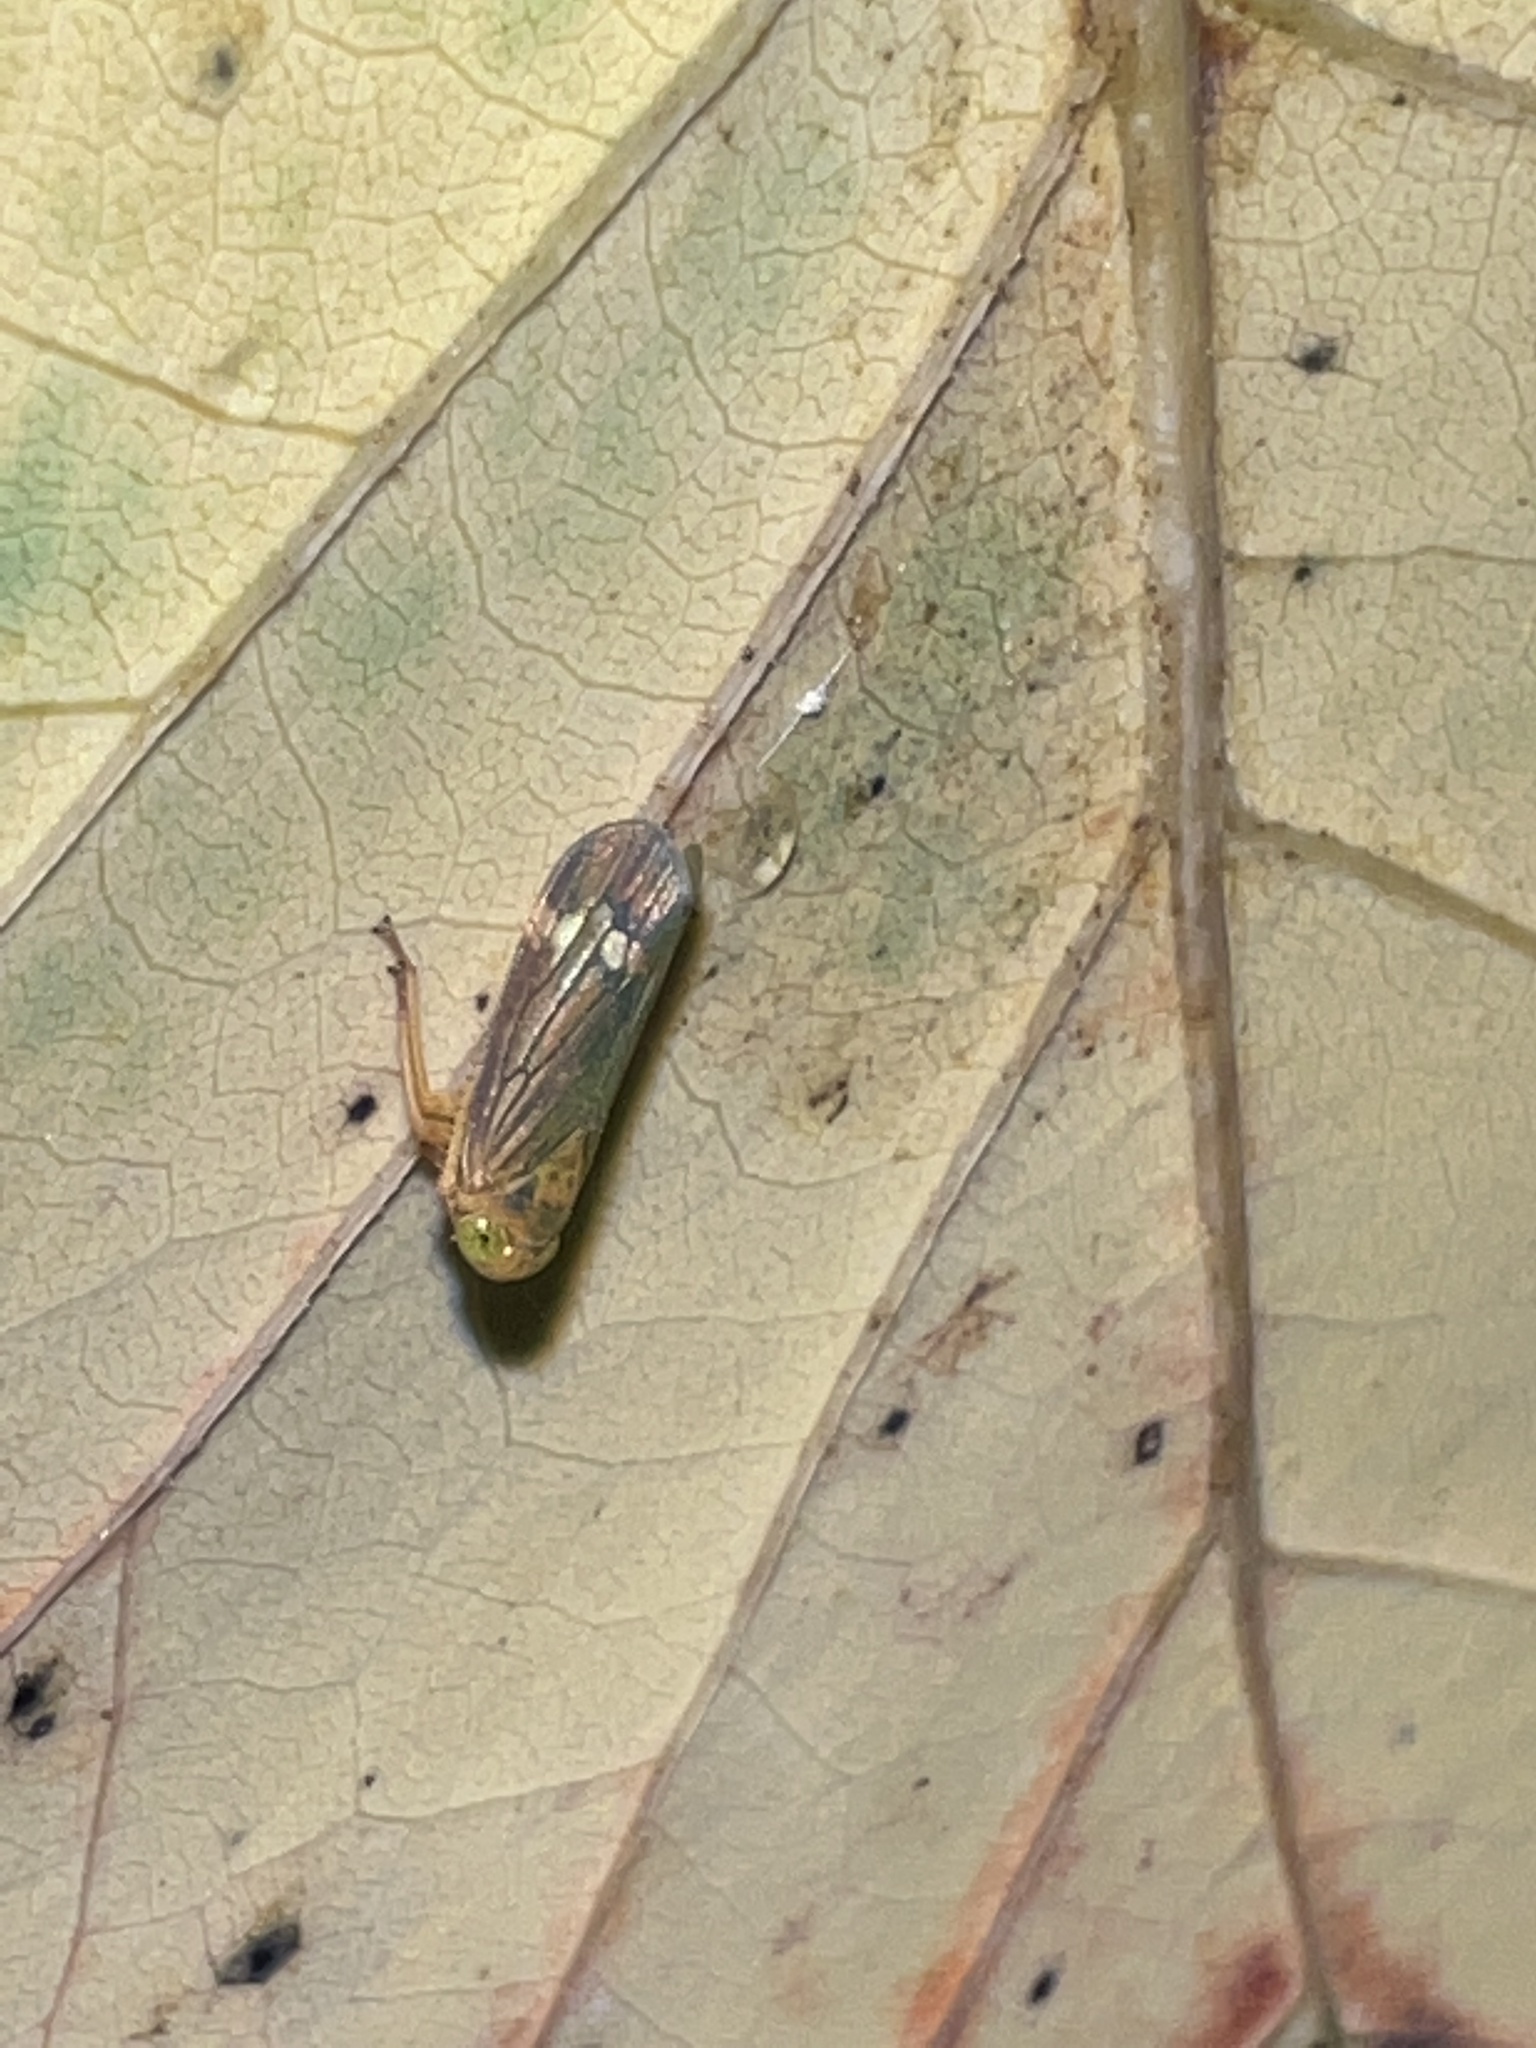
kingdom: Animalia
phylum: Arthropoda
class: Insecta
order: Hemiptera
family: Cicadellidae
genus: Jikradia
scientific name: Jikradia olitoria
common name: Coppery leafhopper
